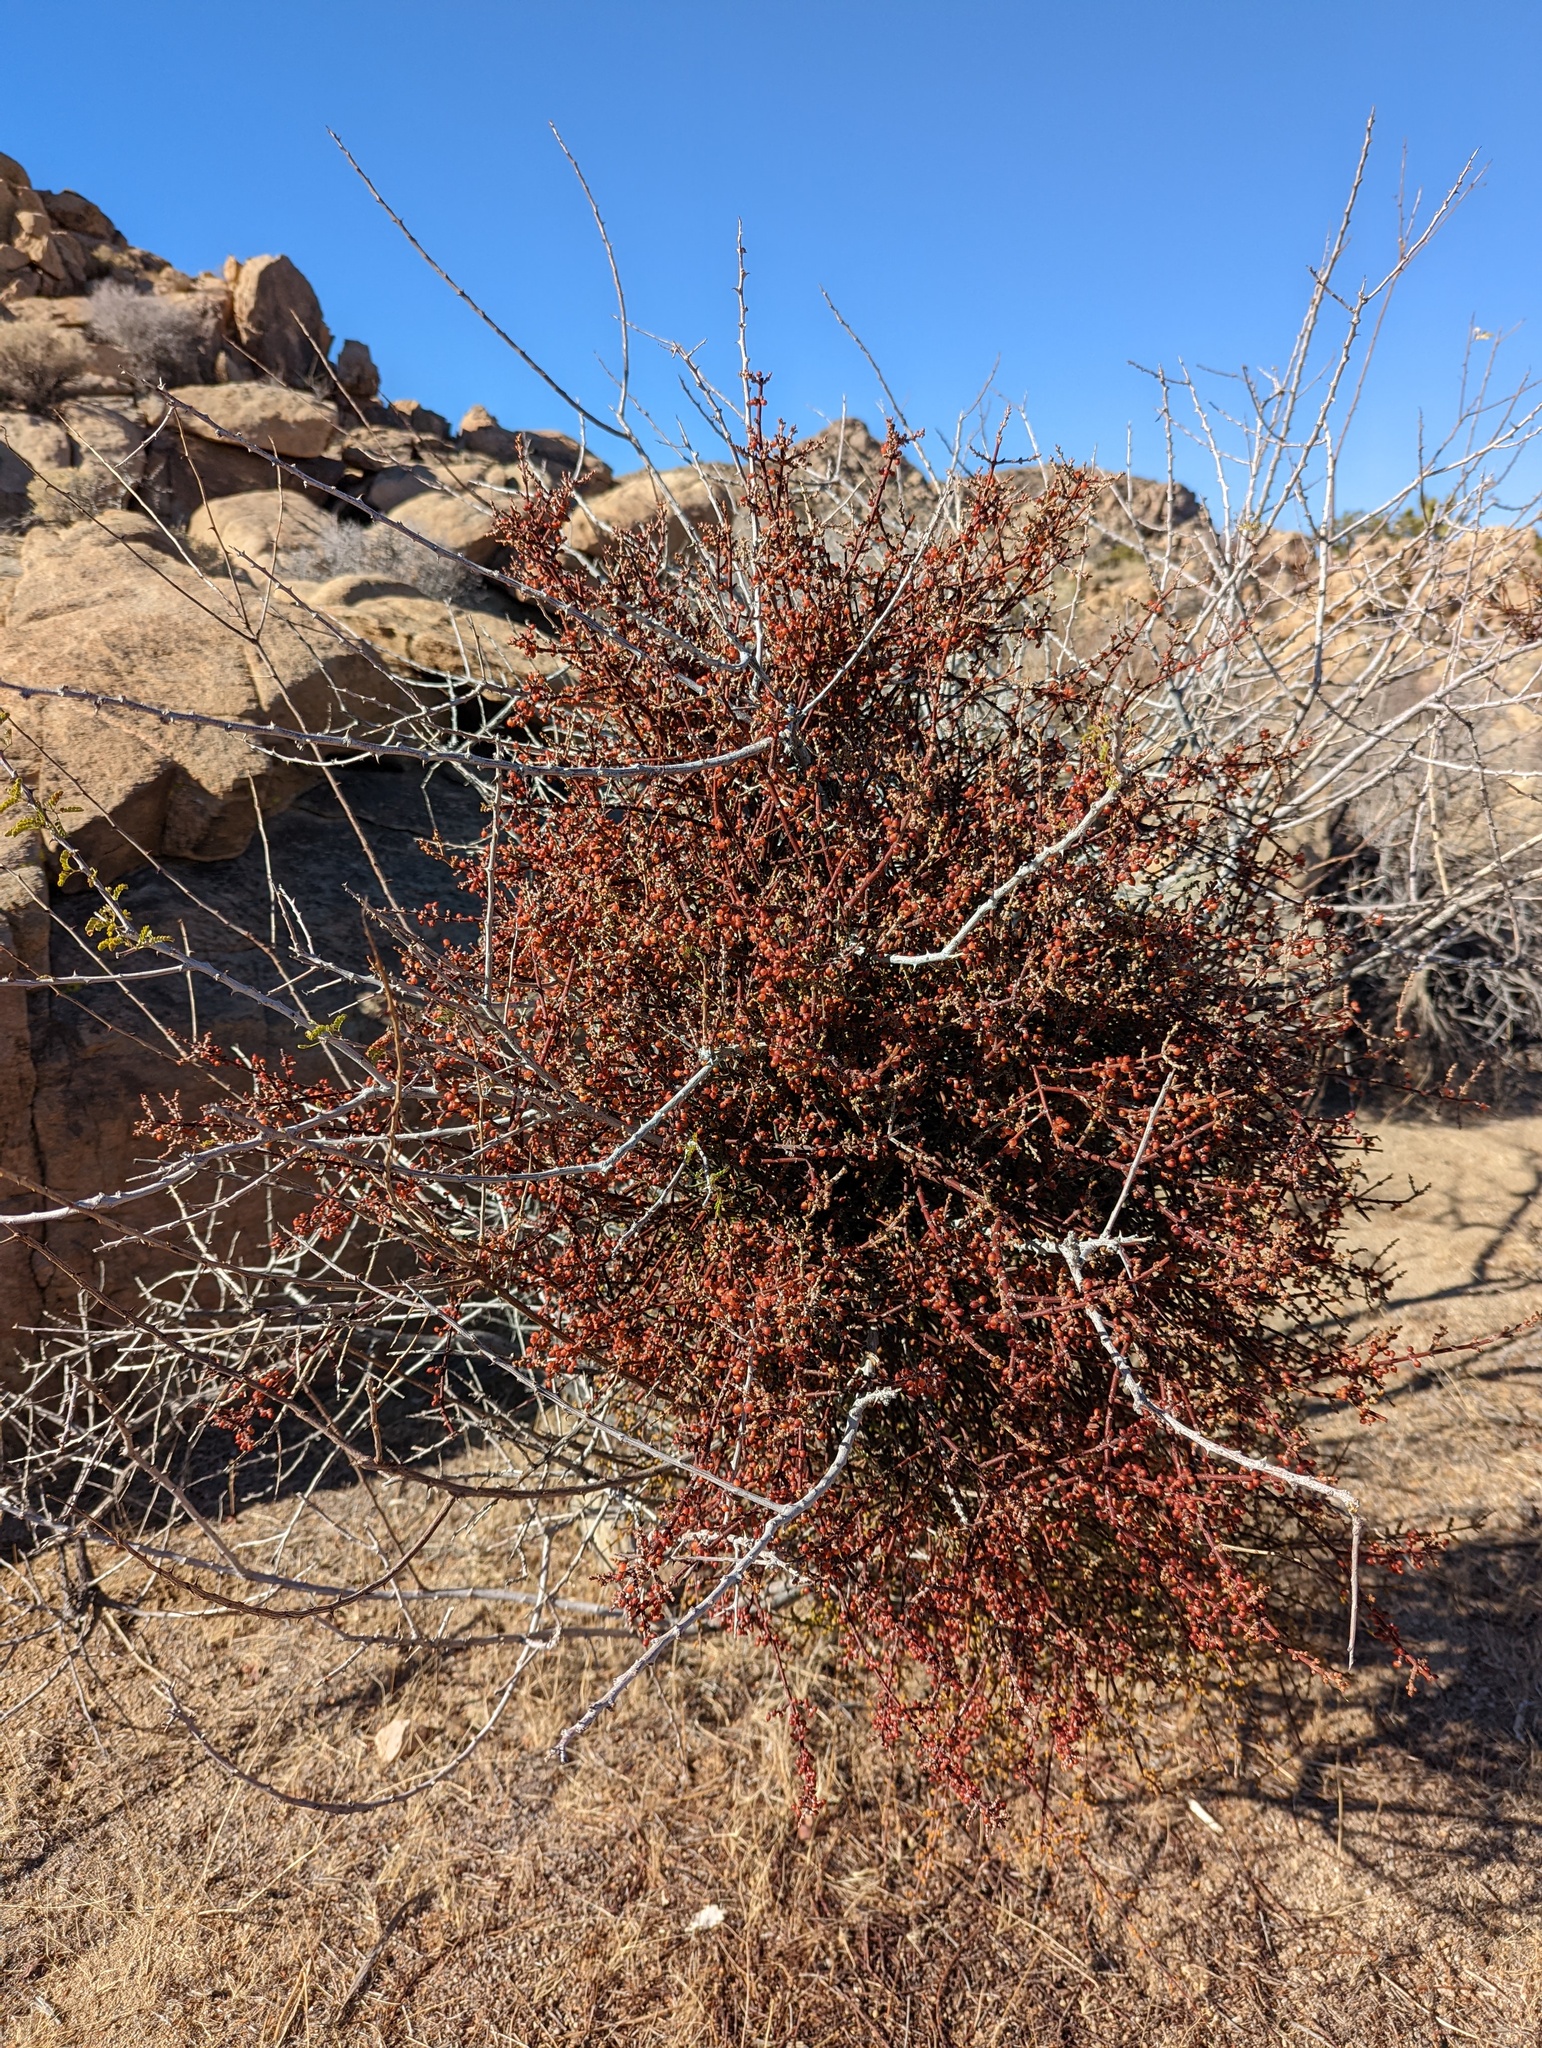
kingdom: Plantae
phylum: Tracheophyta
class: Magnoliopsida
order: Santalales
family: Viscaceae
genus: Phoradendron
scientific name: Phoradendron californicum
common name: Acacia mistletoe
